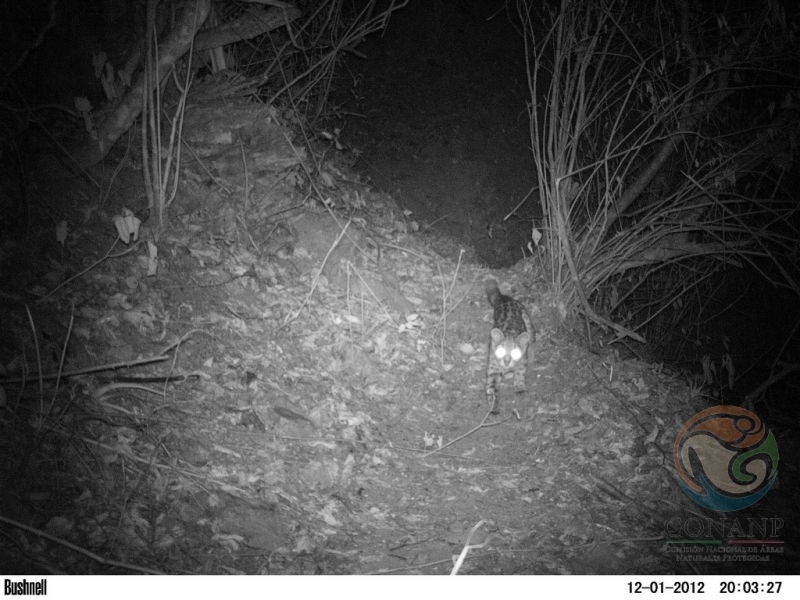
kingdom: Animalia
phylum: Chordata
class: Mammalia
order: Carnivora
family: Felidae
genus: Leopardus
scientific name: Leopardus wiedii
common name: Margay
